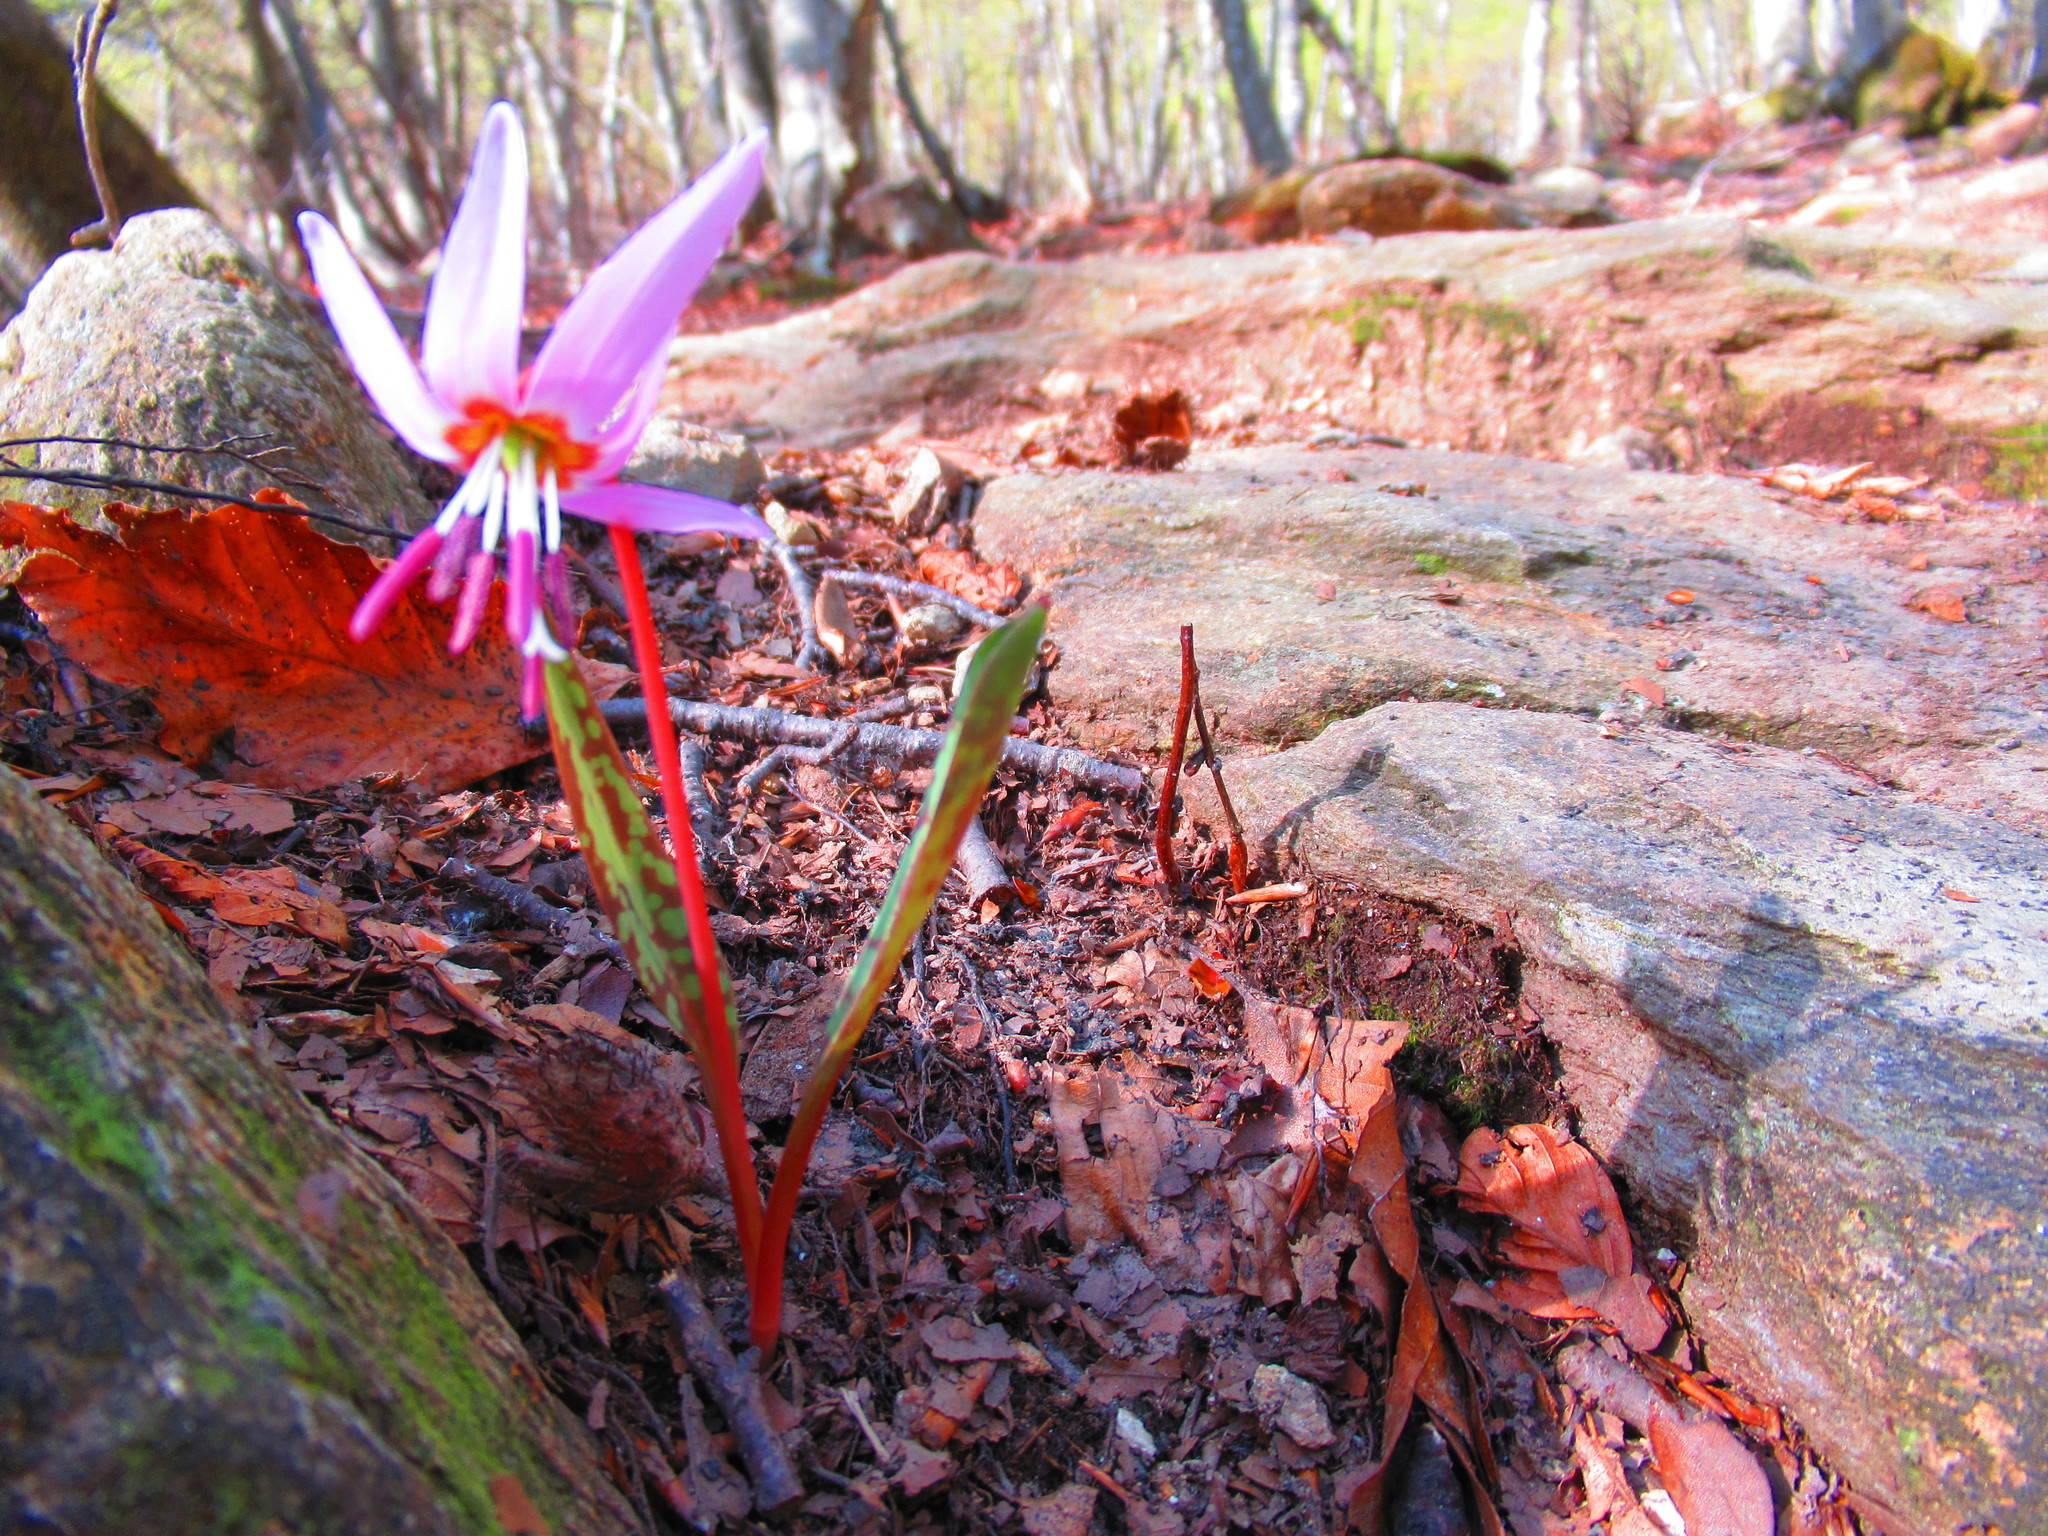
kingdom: Plantae
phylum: Tracheophyta
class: Liliopsida
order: Liliales
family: Liliaceae
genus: Erythronium
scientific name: Erythronium dens-canis
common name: Dog's-tooth-violet
